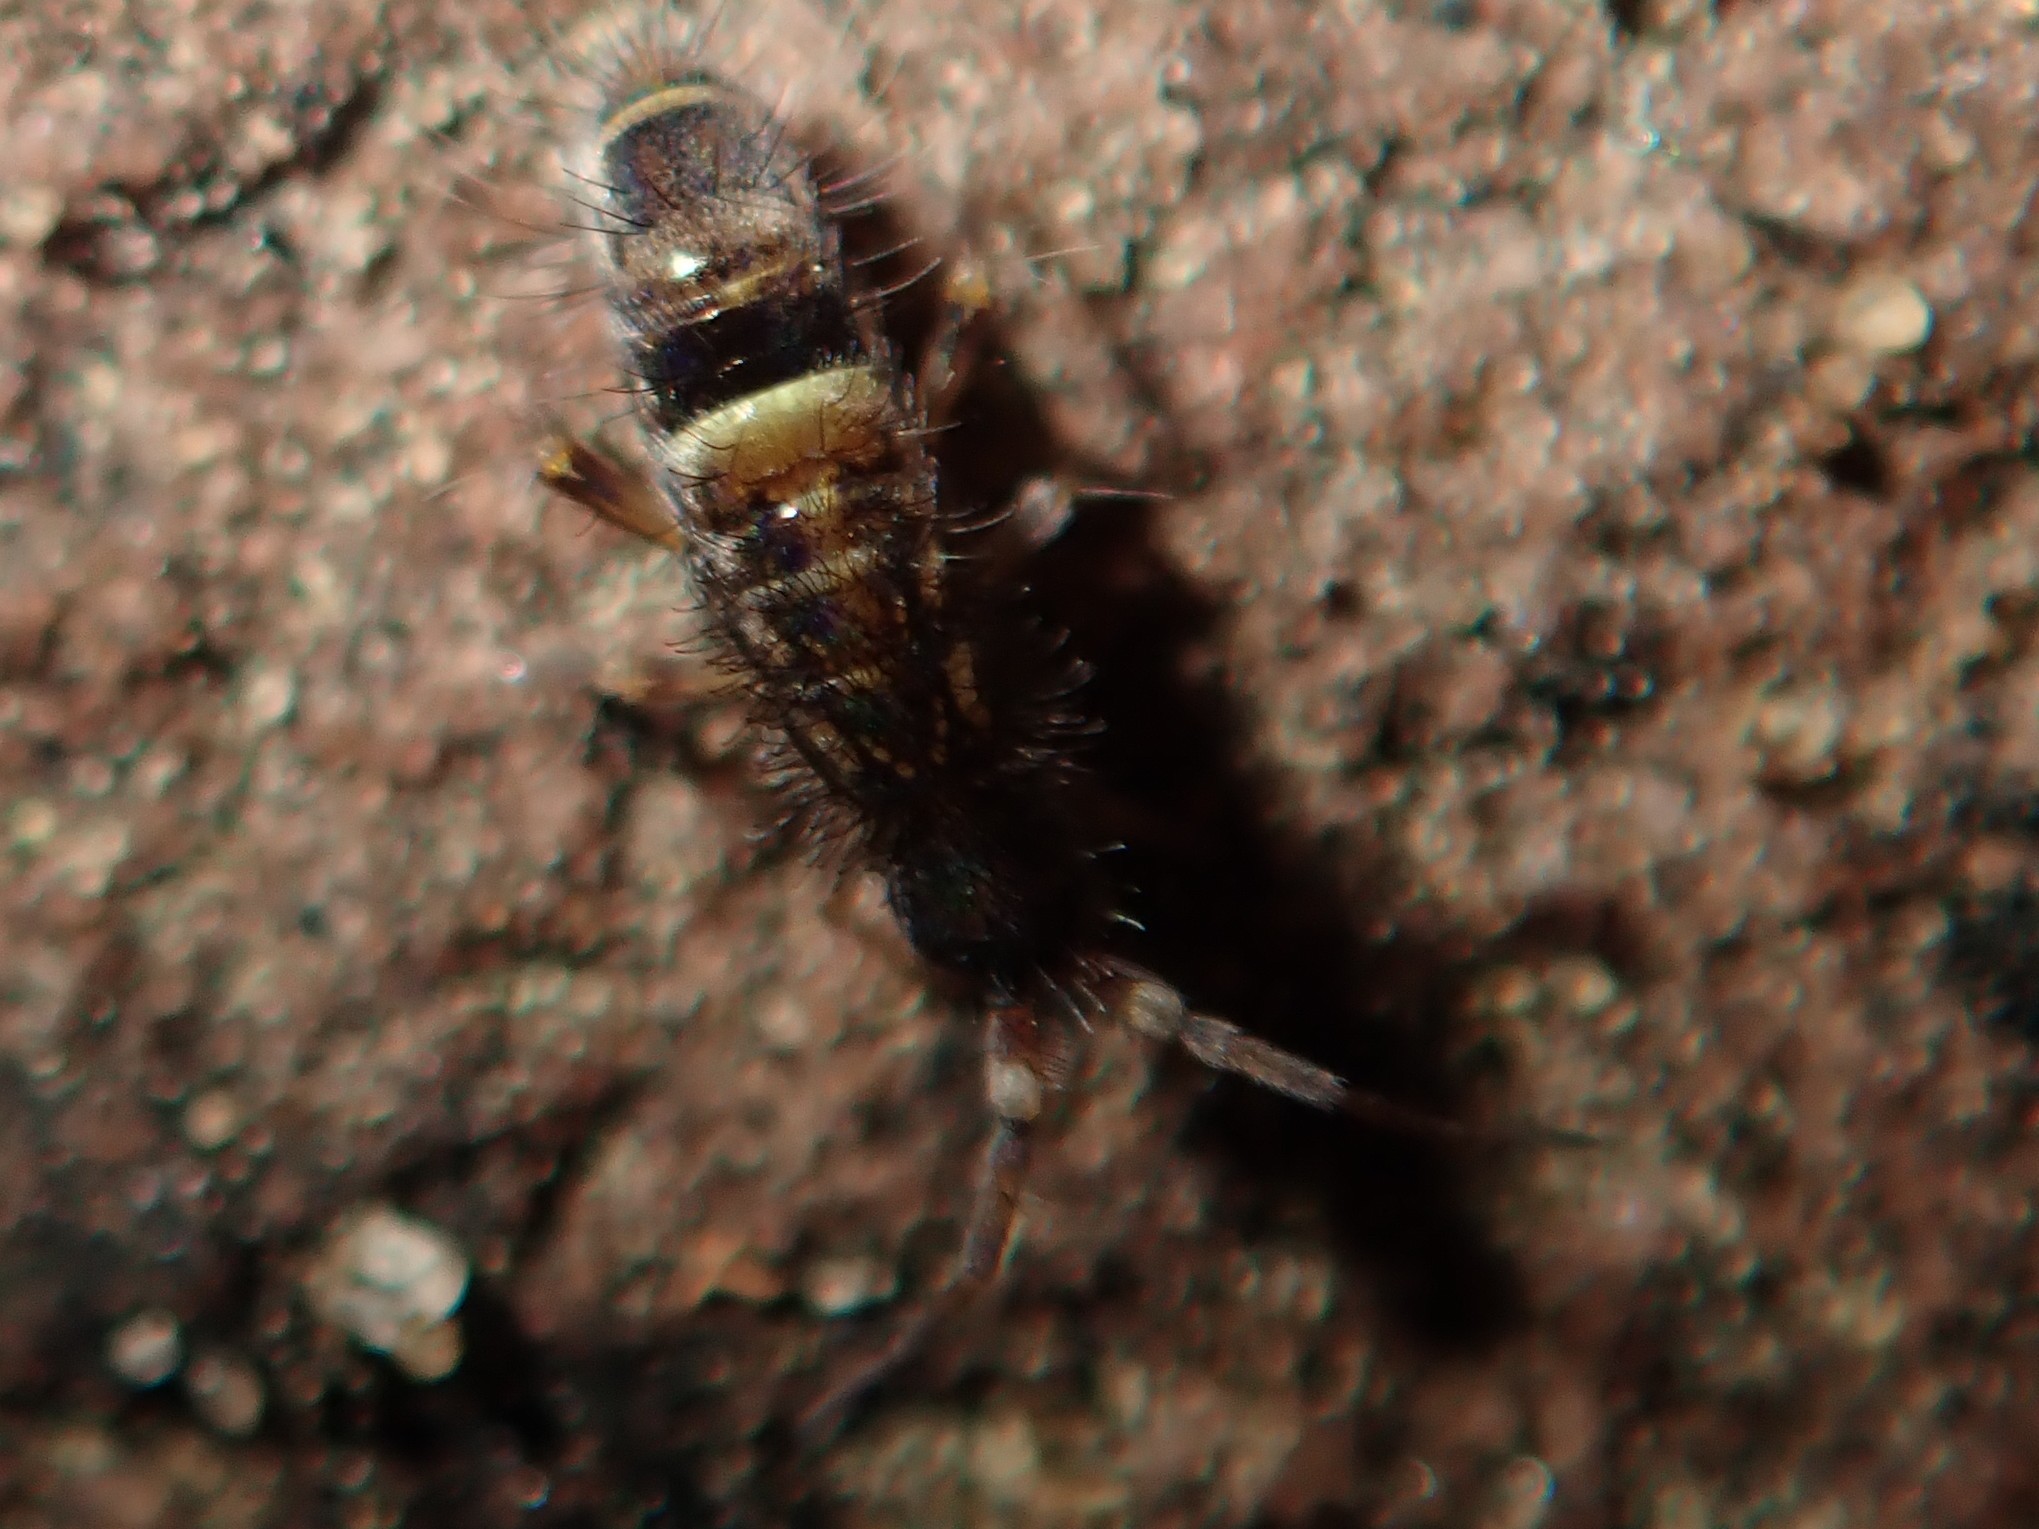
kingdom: Animalia
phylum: Arthropoda
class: Collembola
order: Entomobryomorpha
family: Orchesellidae
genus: Orchesella
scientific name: Orchesella cincta
